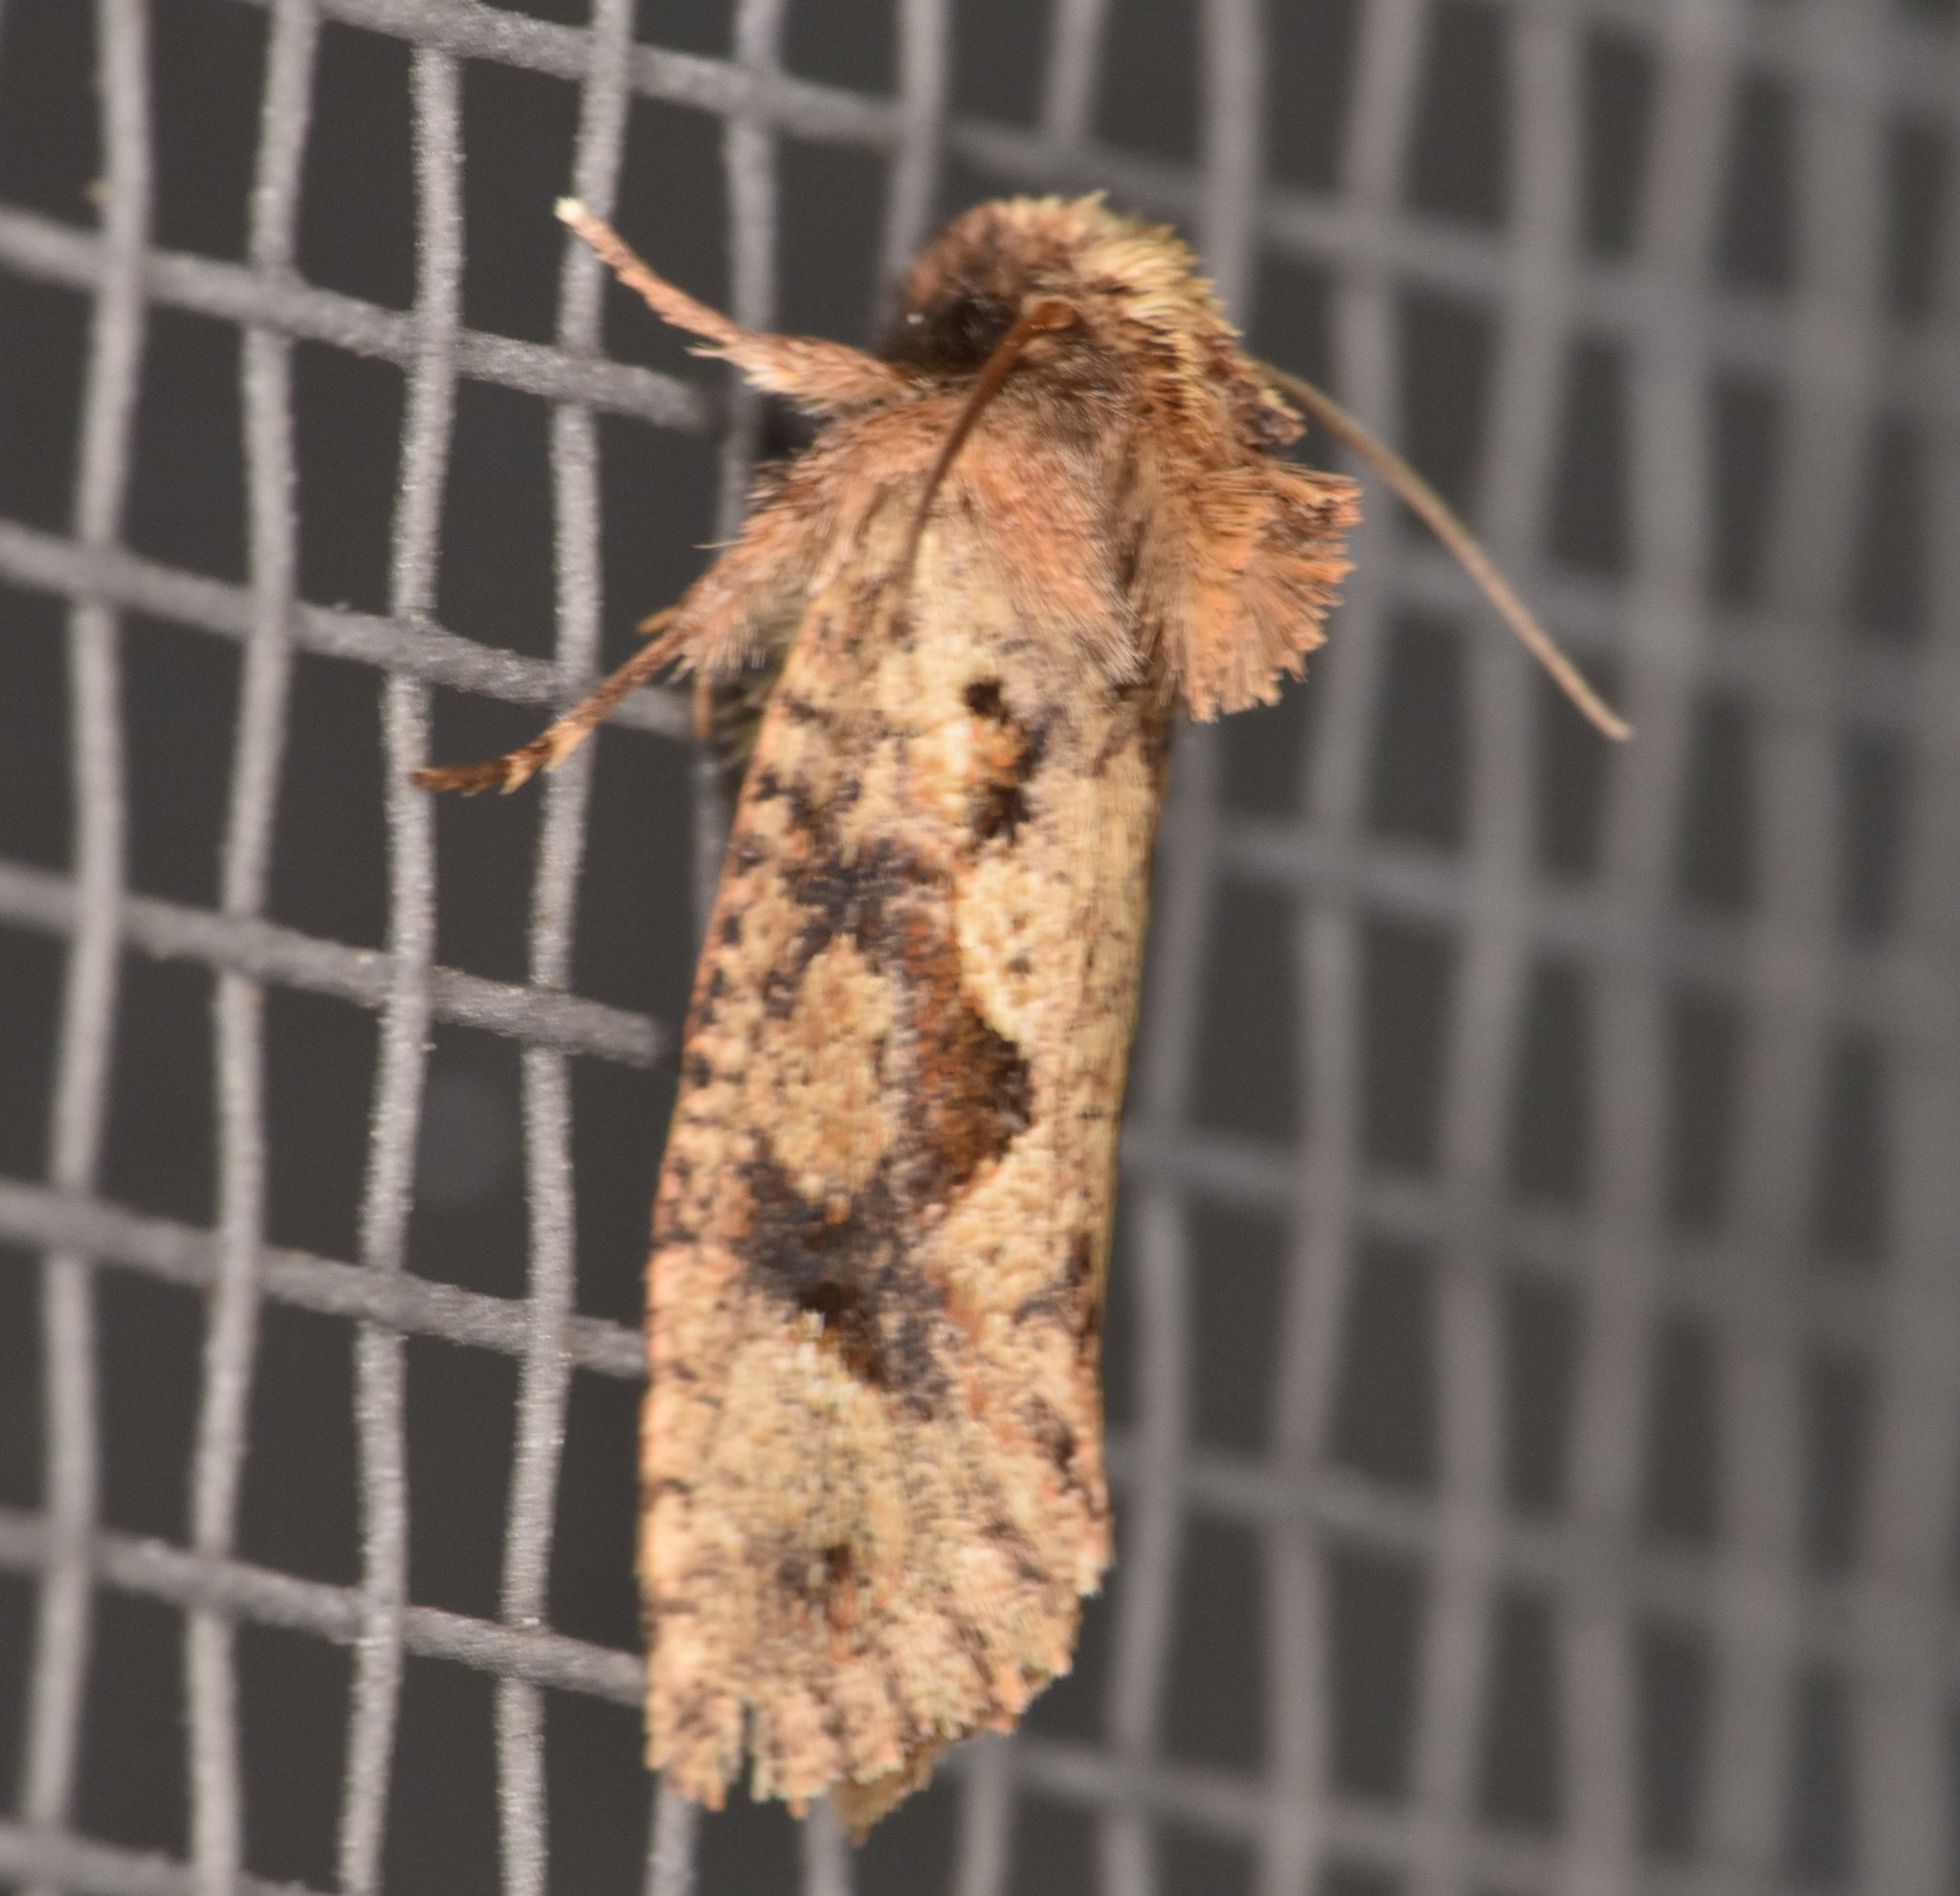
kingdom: Animalia
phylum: Arthropoda
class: Insecta
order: Lepidoptera
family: Tineidae
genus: Acrolophus
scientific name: Acrolophus walsinghami
